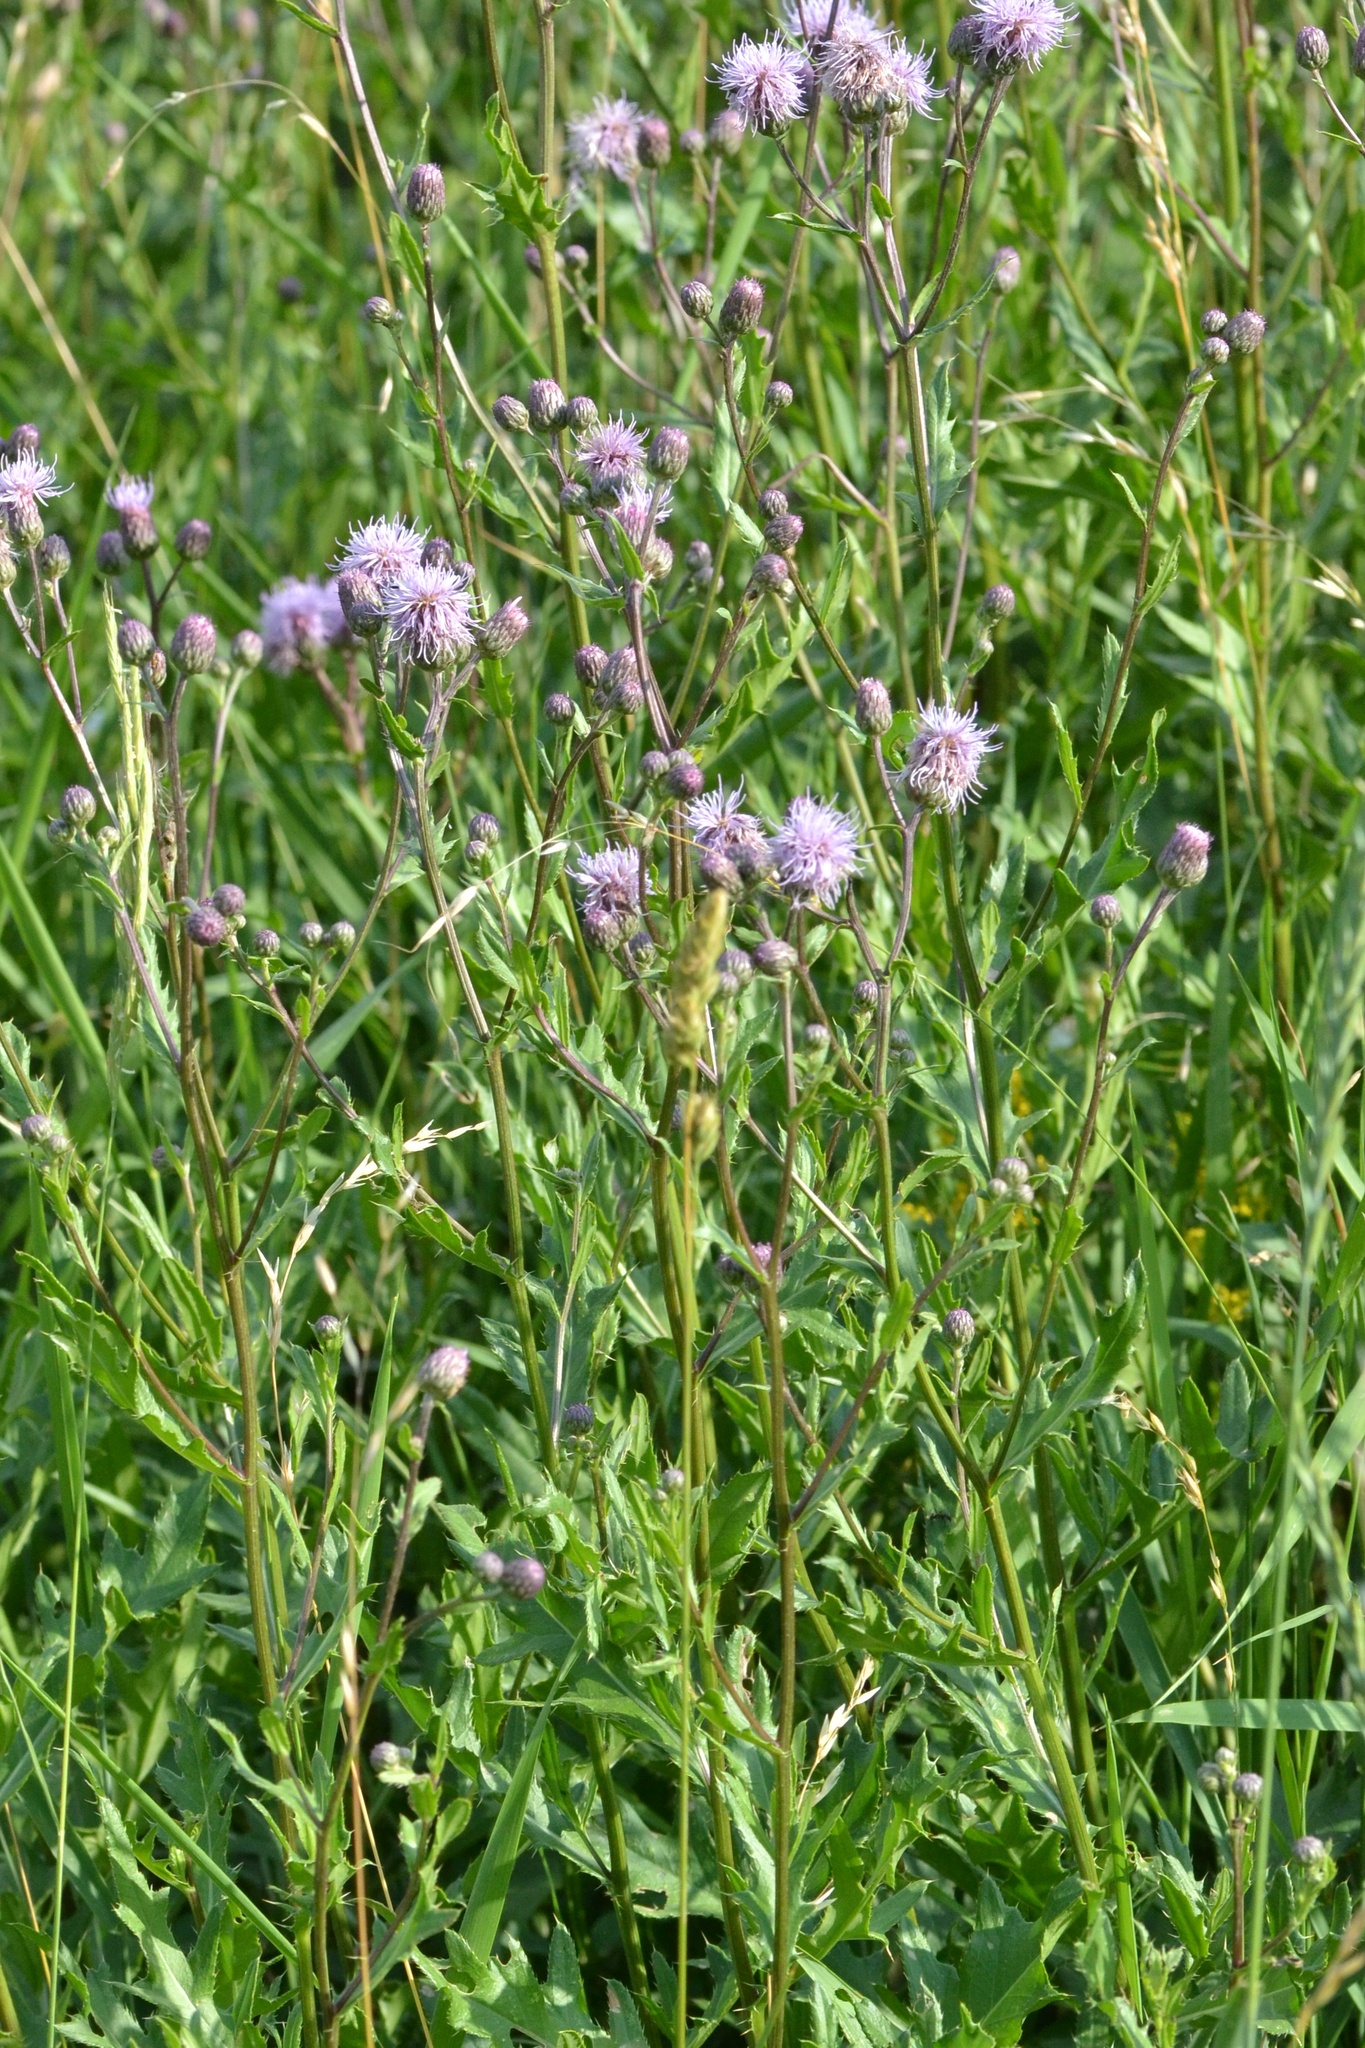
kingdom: Plantae
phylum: Tracheophyta
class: Magnoliopsida
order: Asterales
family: Asteraceae
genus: Cirsium
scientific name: Cirsium arvense
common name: Creeping thistle
